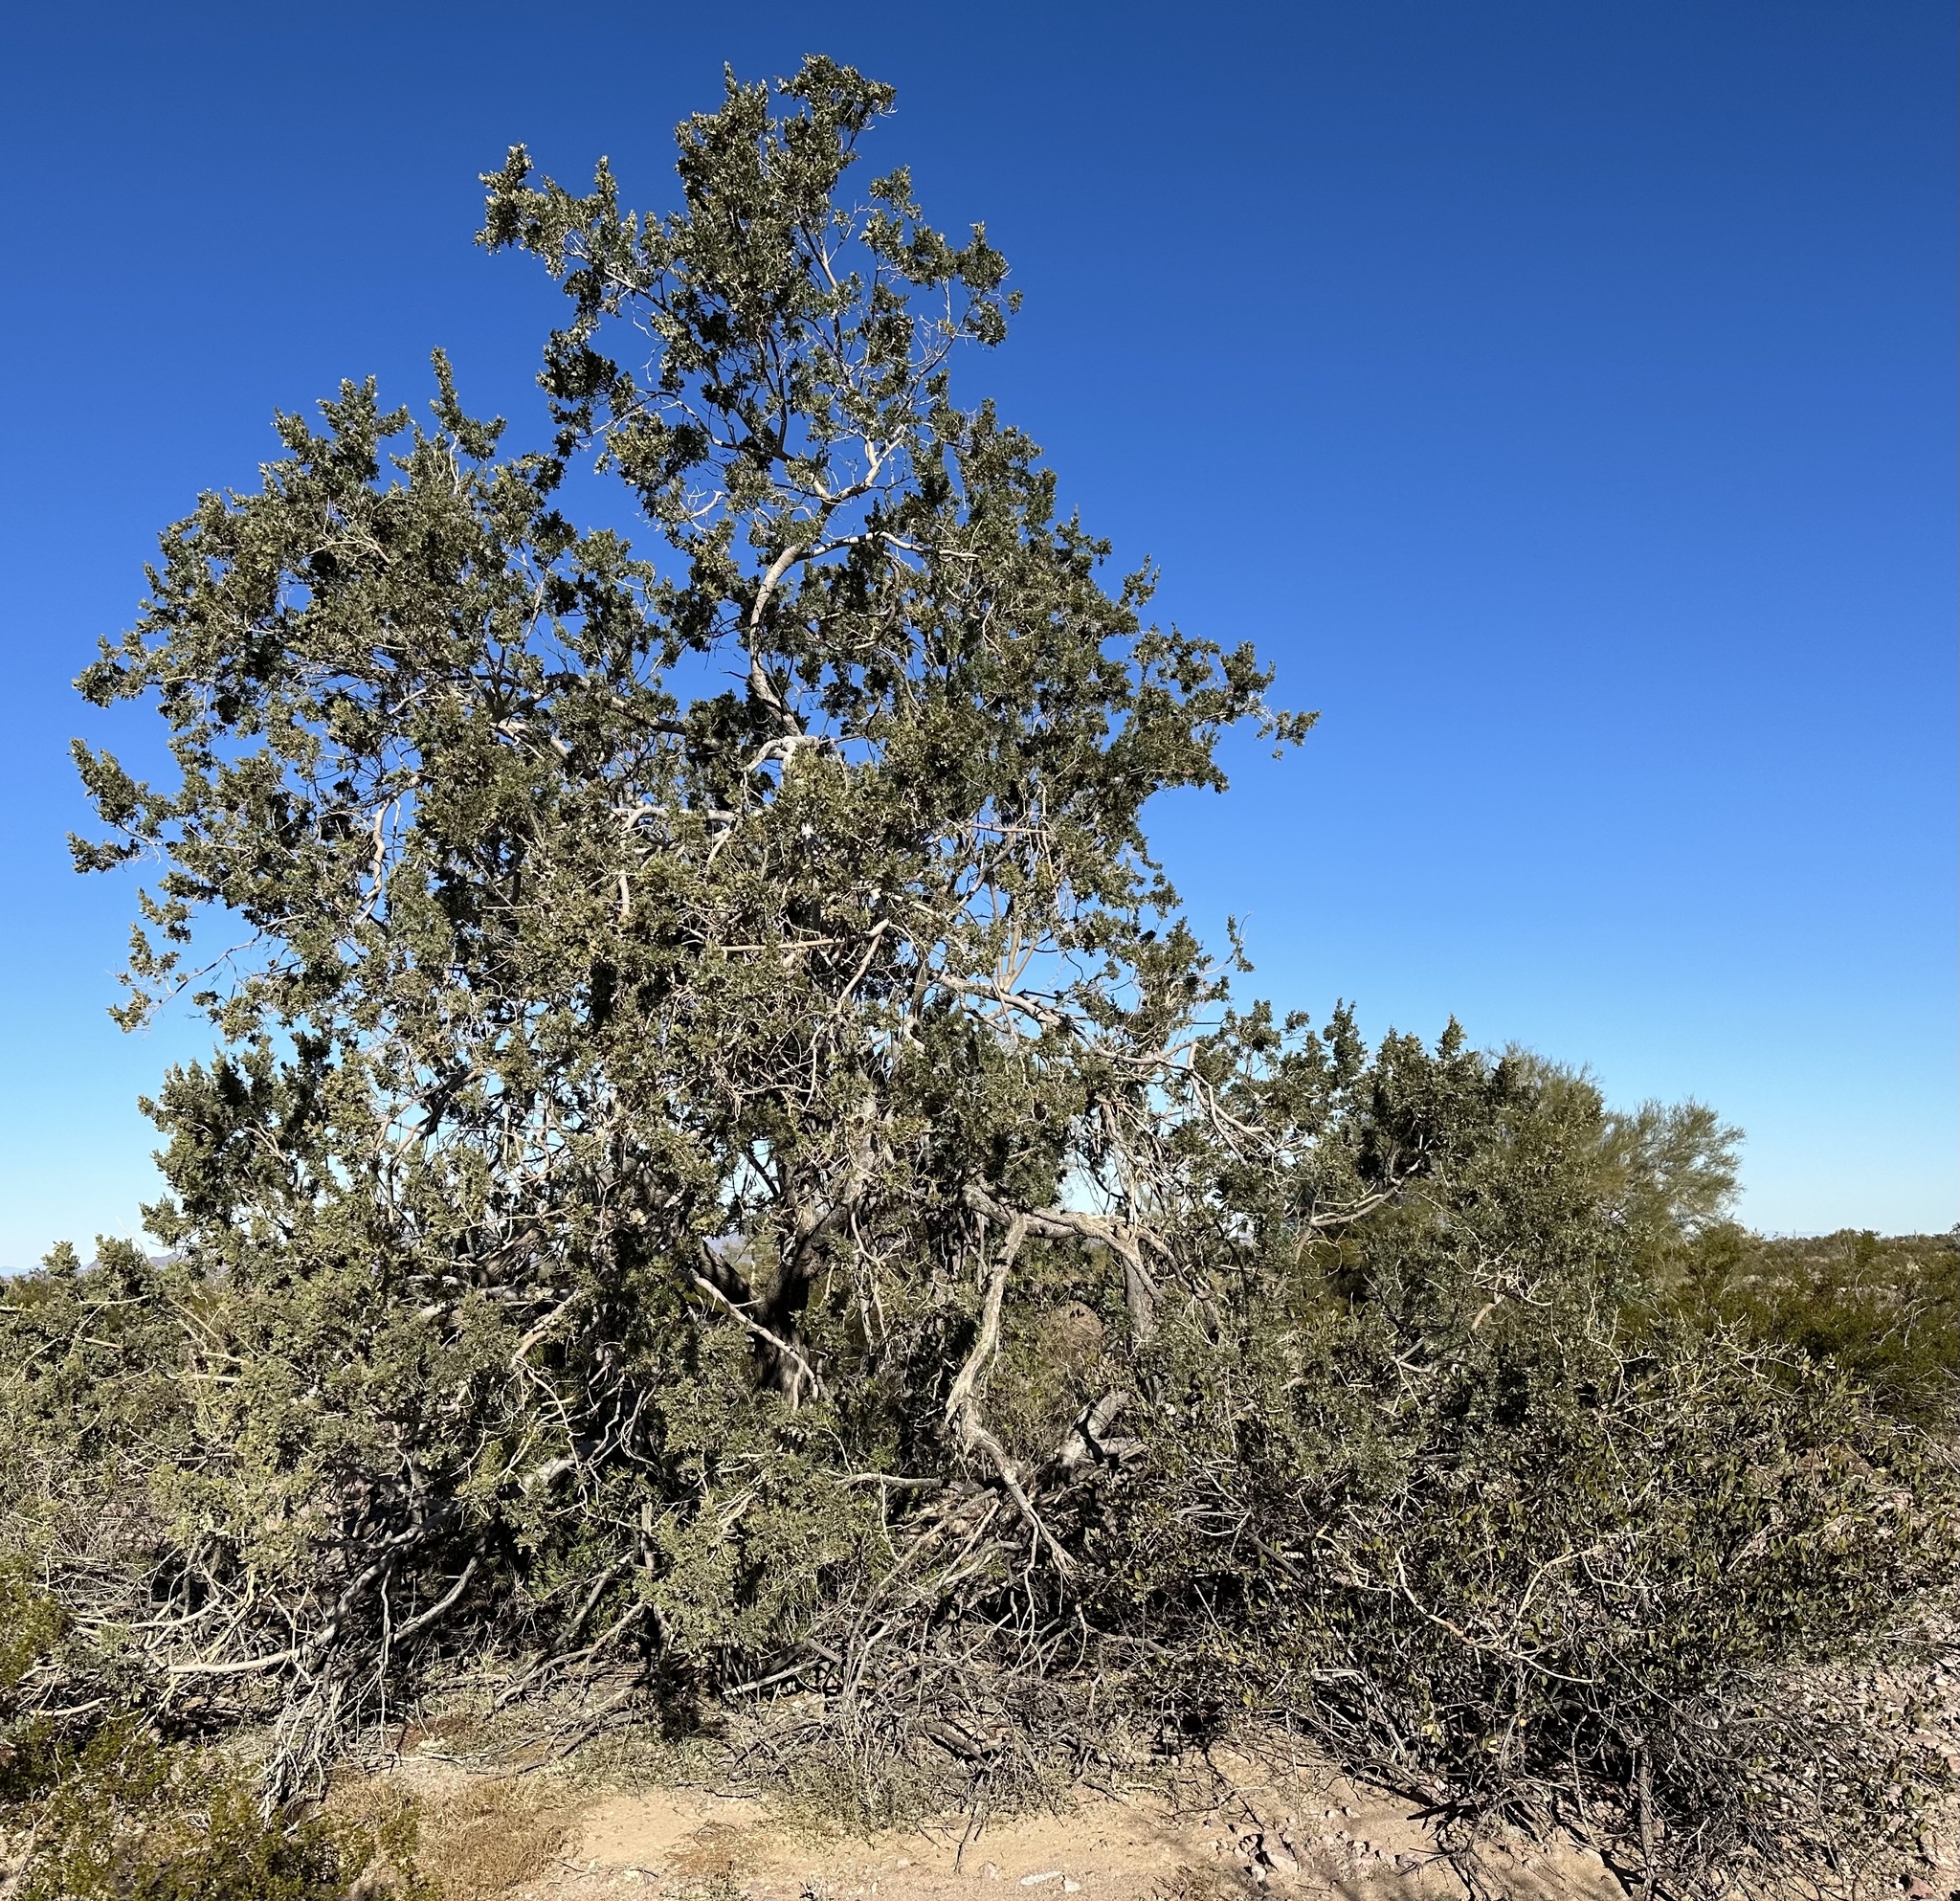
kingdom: Plantae
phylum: Tracheophyta
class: Magnoliopsida
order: Fabales
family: Fabaceae
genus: Olneya
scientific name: Olneya tesota
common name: Desert ironwood
